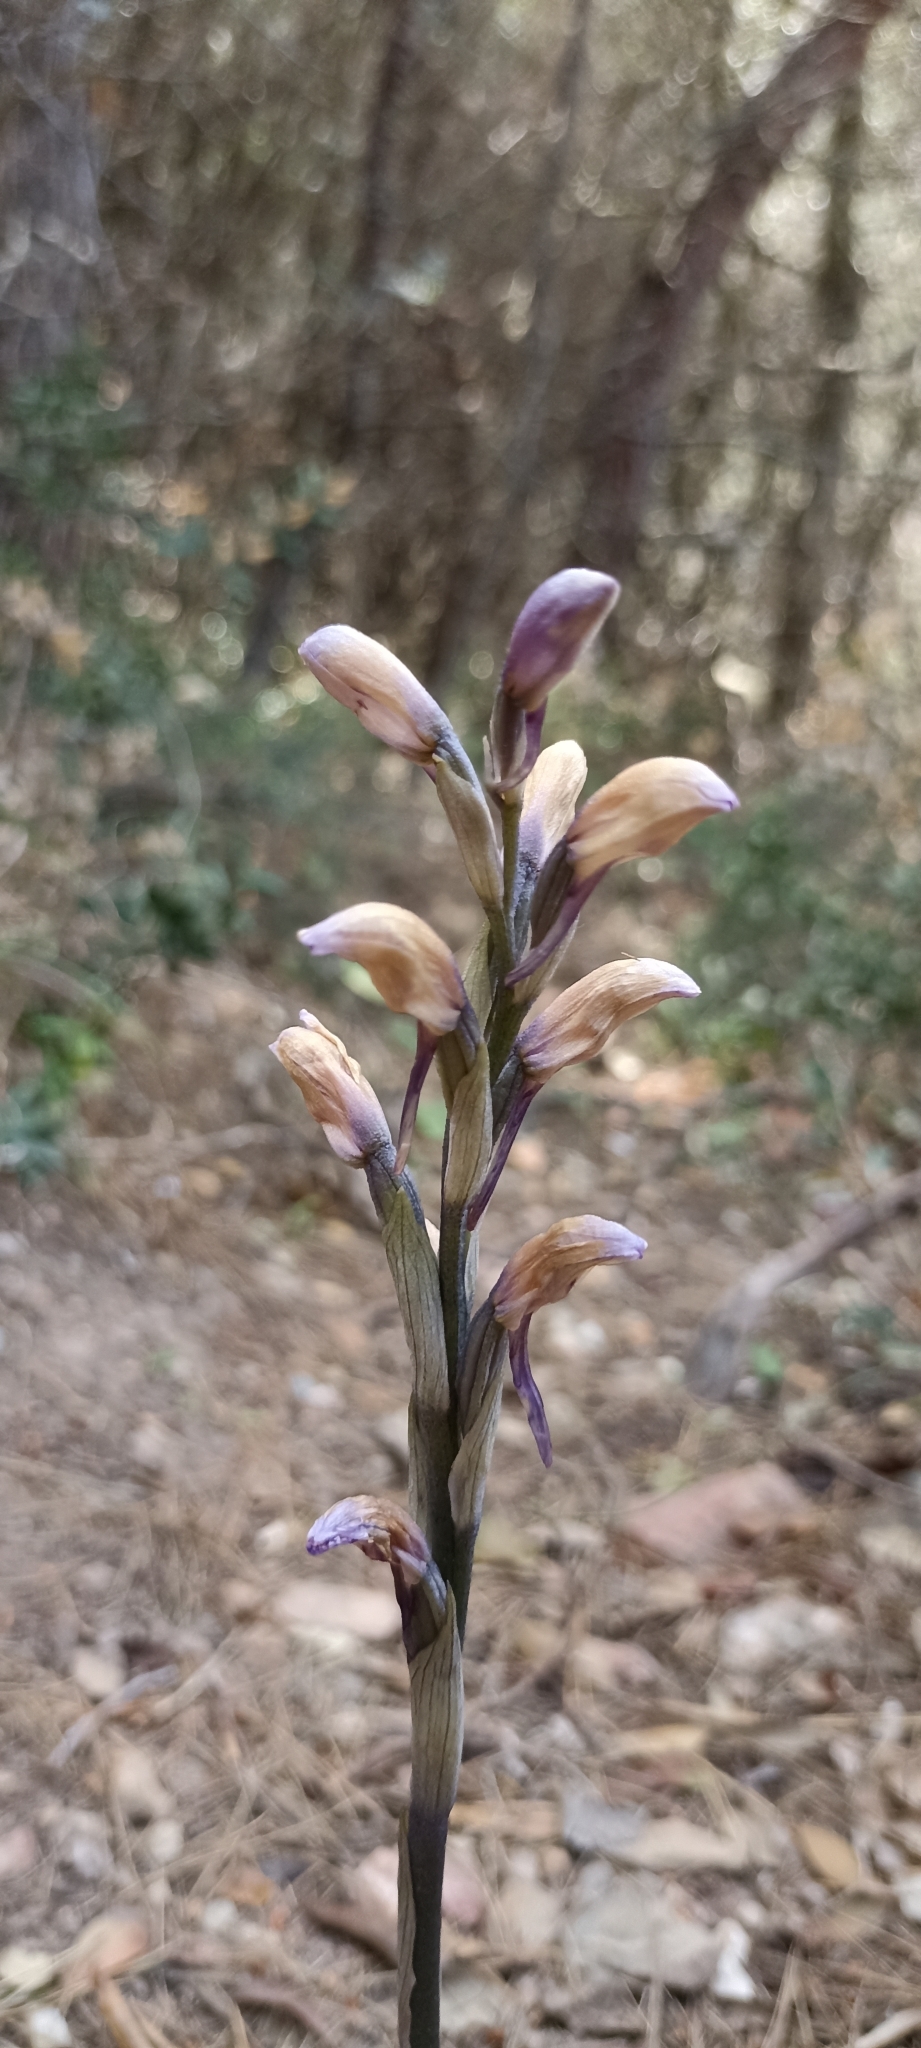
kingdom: Plantae
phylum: Tracheophyta
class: Liliopsida
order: Asparagales
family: Orchidaceae
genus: Limodorum
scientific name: Limodorum abortivum
